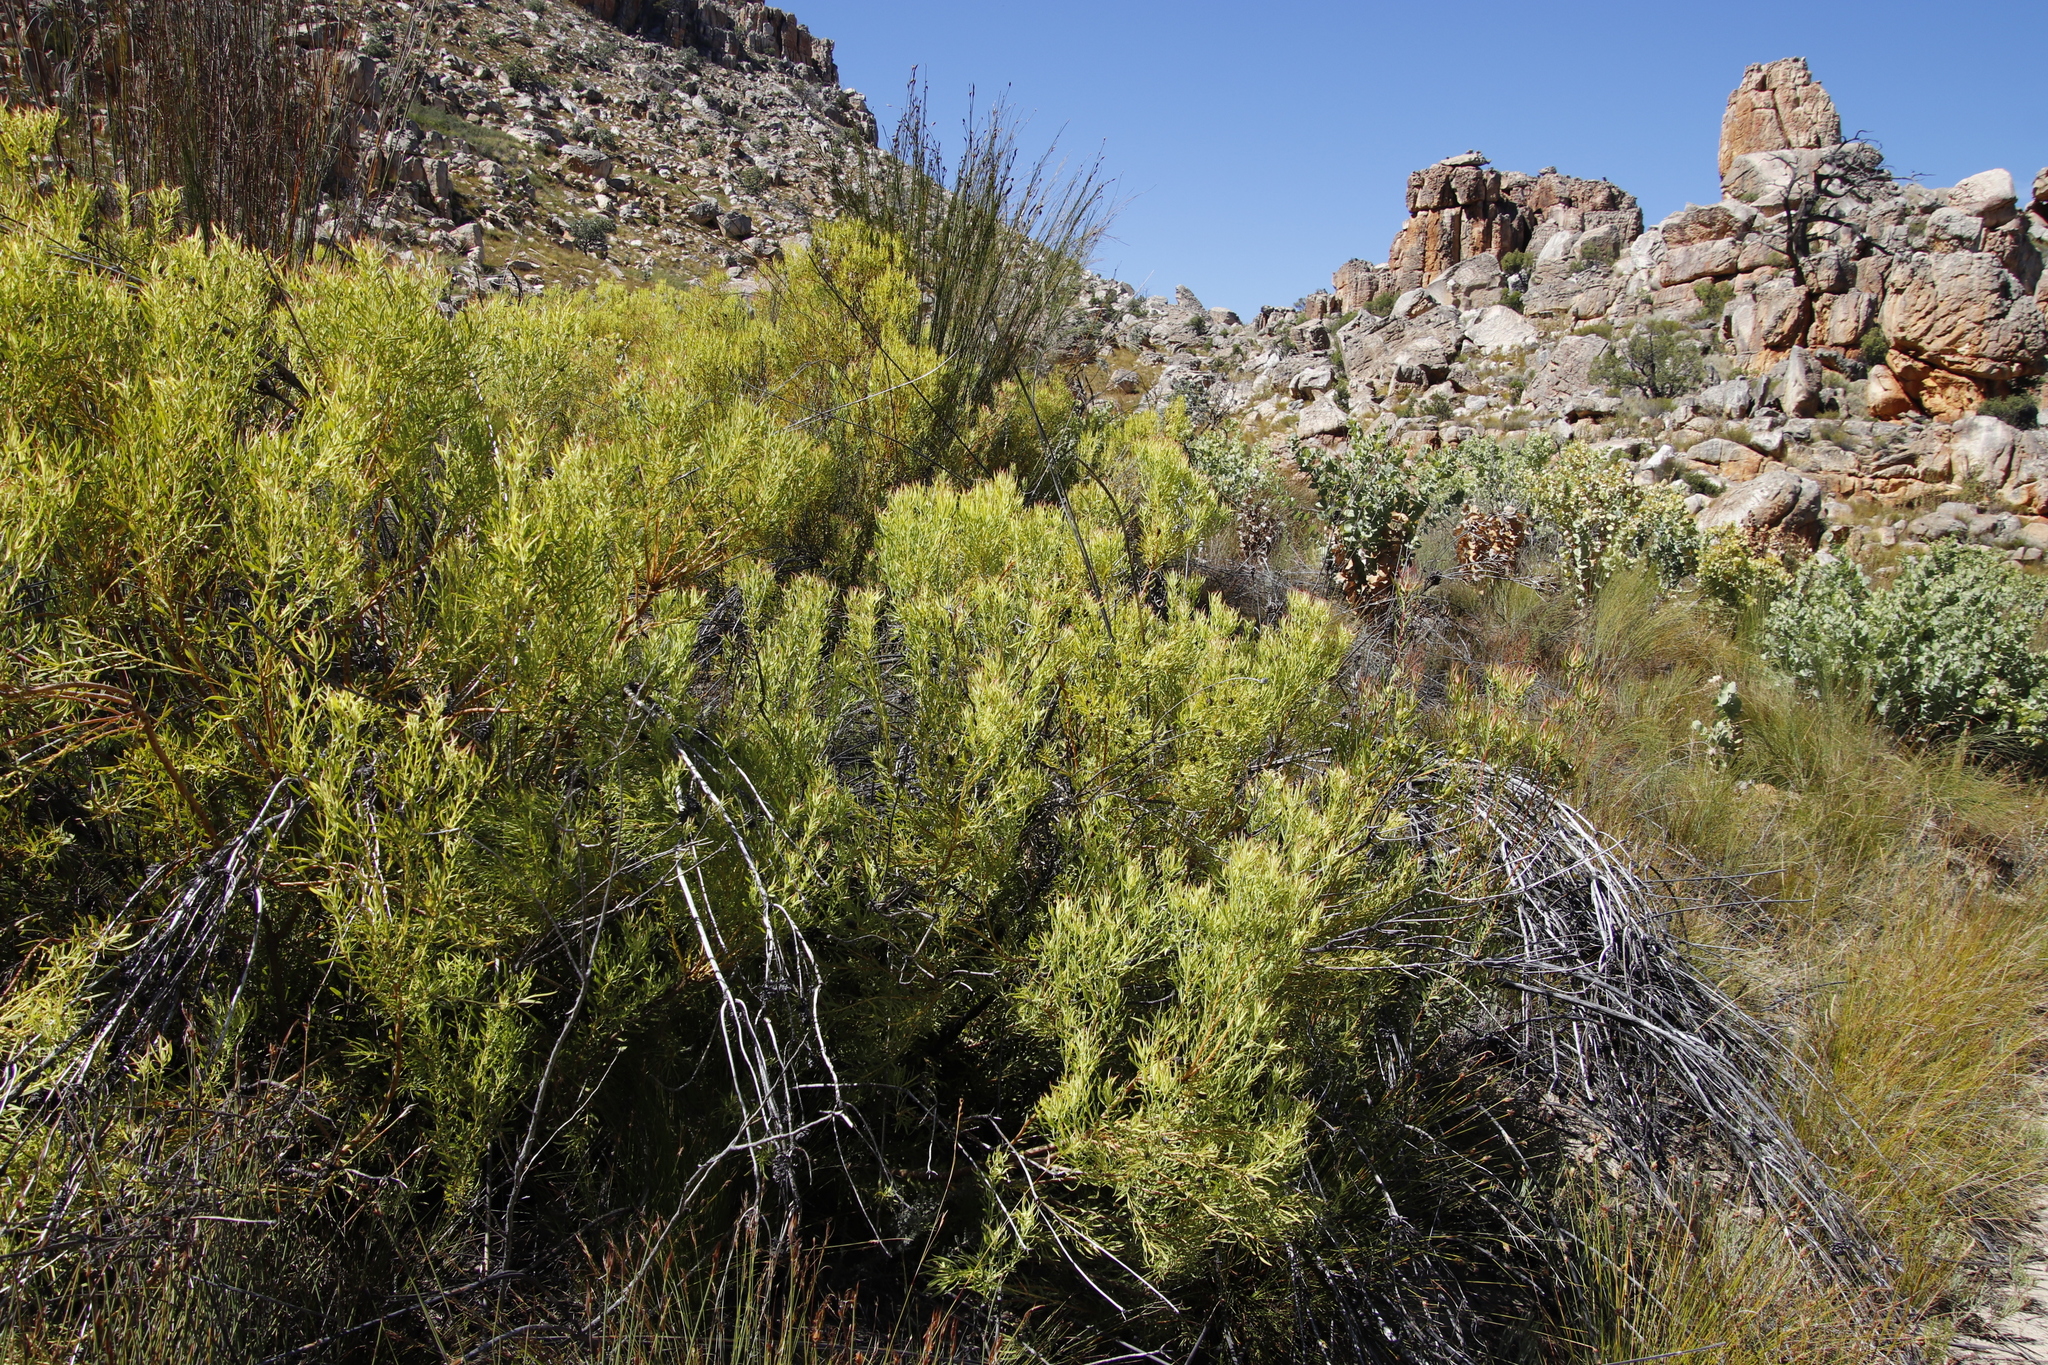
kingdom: Plantae
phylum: Tracheophyta
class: Magnoliopsida
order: Proteales
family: Proteaceae
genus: Leucadendron
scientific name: Leucadendron salignum
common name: Common sunshine conebush
